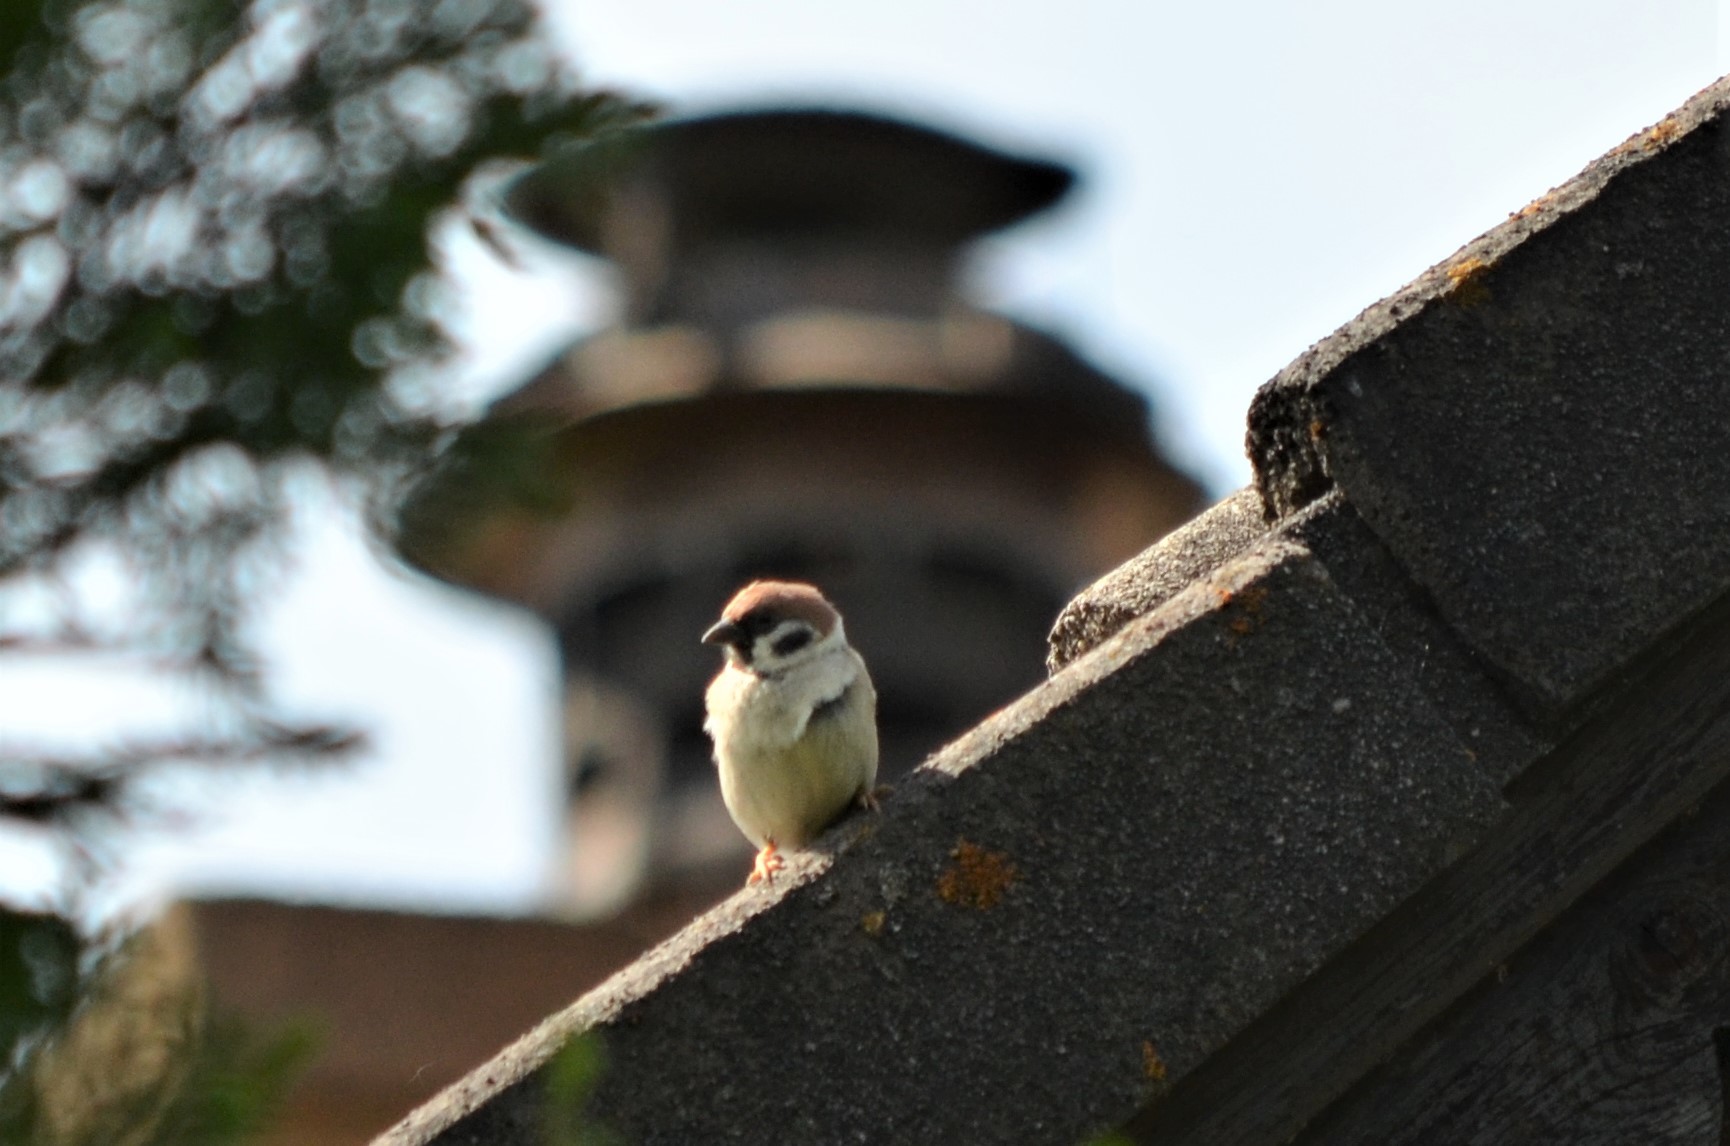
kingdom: Animalia
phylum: Chordata
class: Aves
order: Passeriformes
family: Passeridae
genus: Passer
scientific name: Passer montanus
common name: Eurasian tree sparrow
